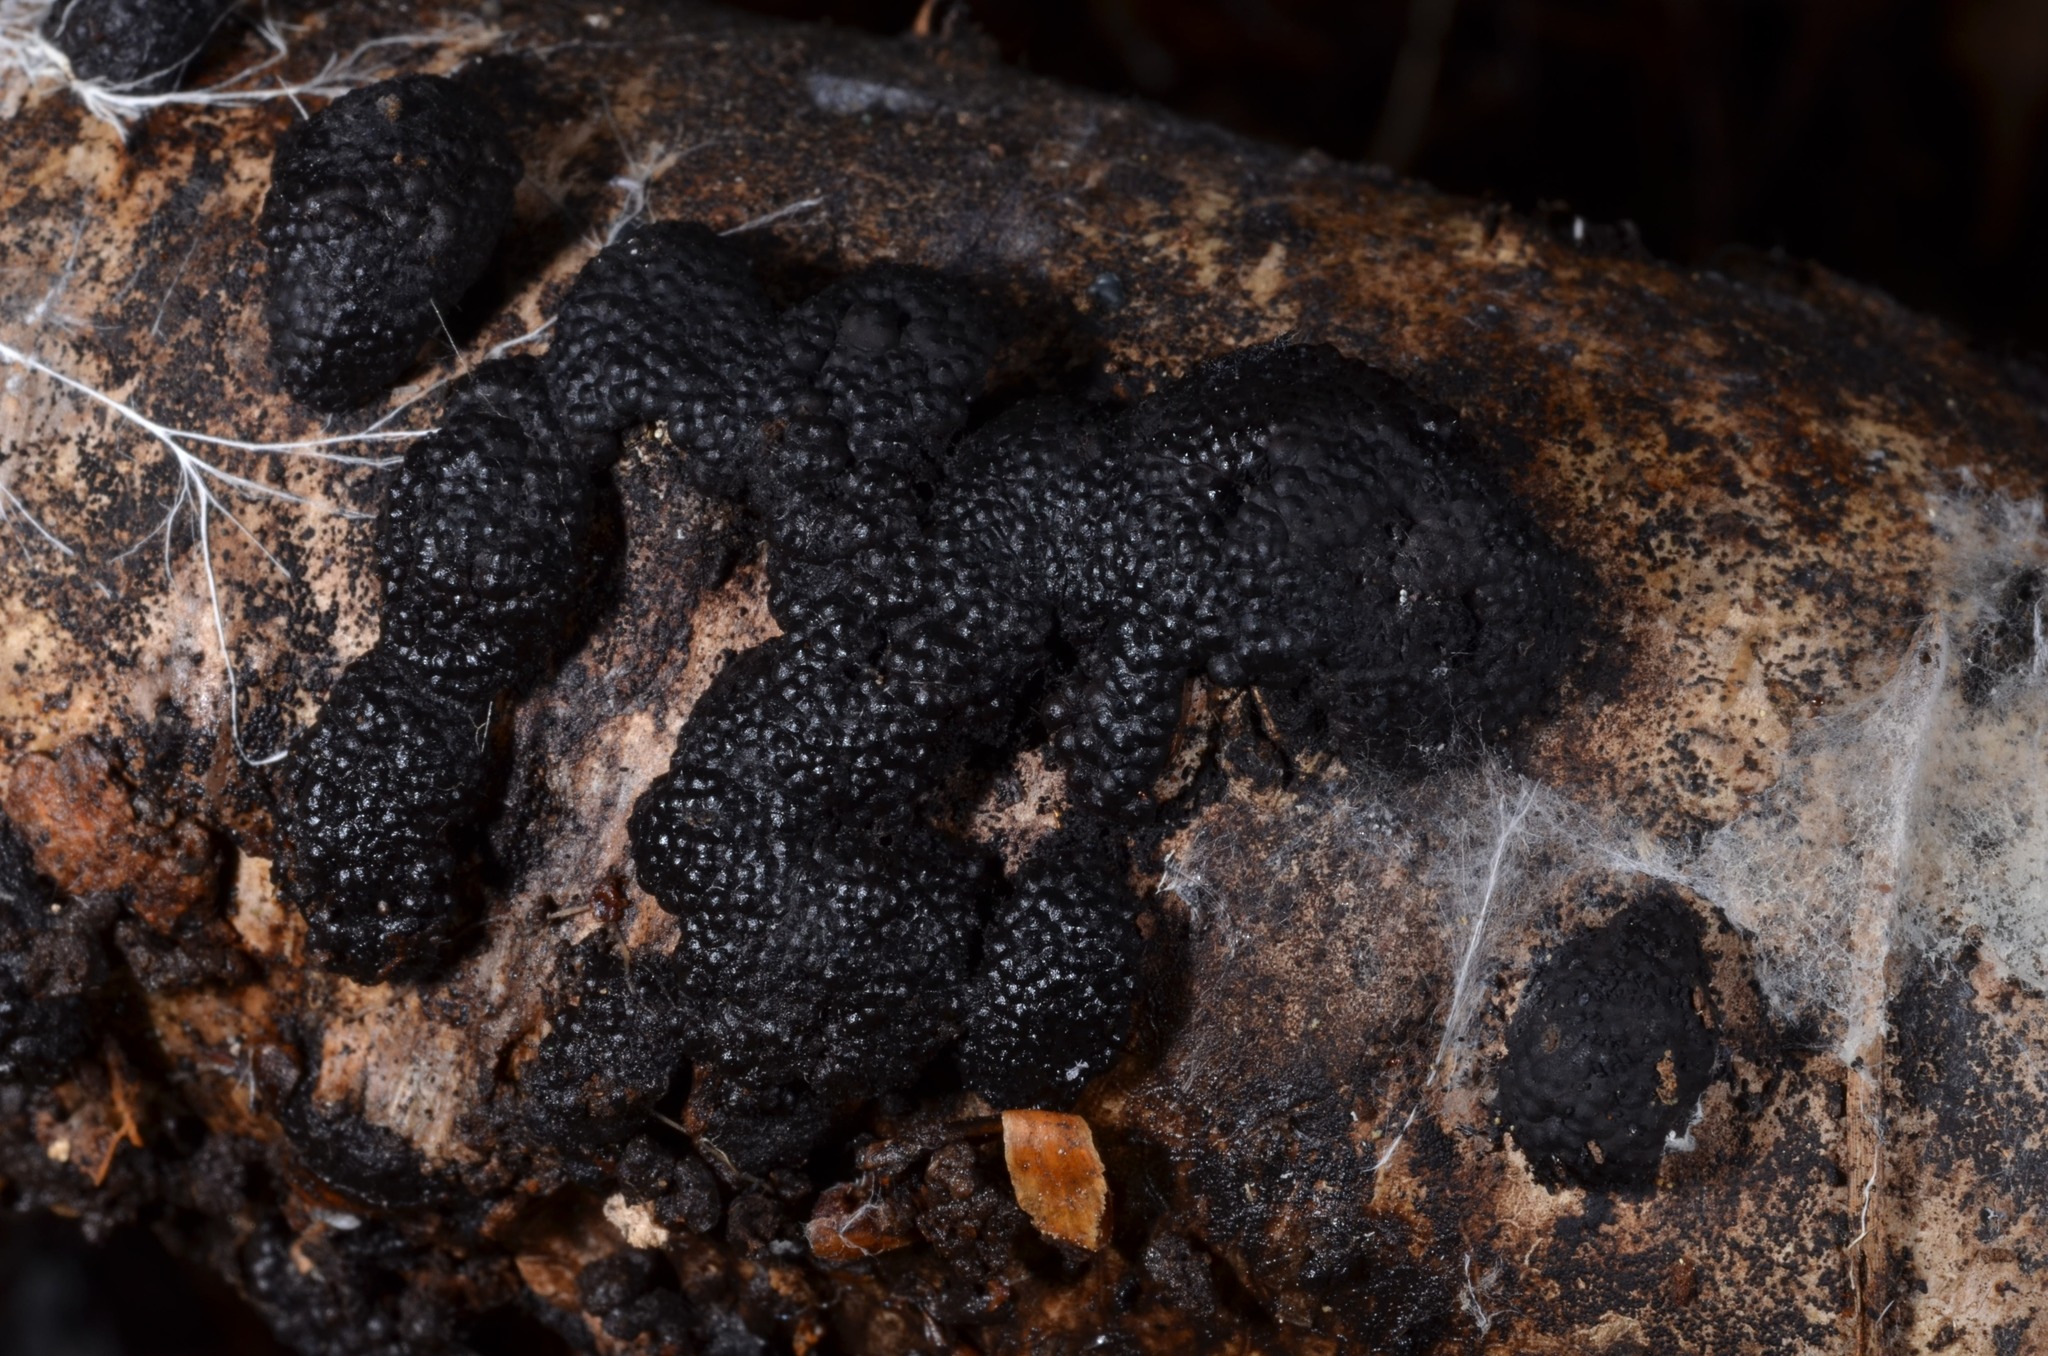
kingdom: Fungi
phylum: Ascomycota
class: Sordariomycetes
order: Xylariales
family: Hypoxylaceae
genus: Jackrogersella
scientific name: Jackrogersella multiformis
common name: Birch woodwart
